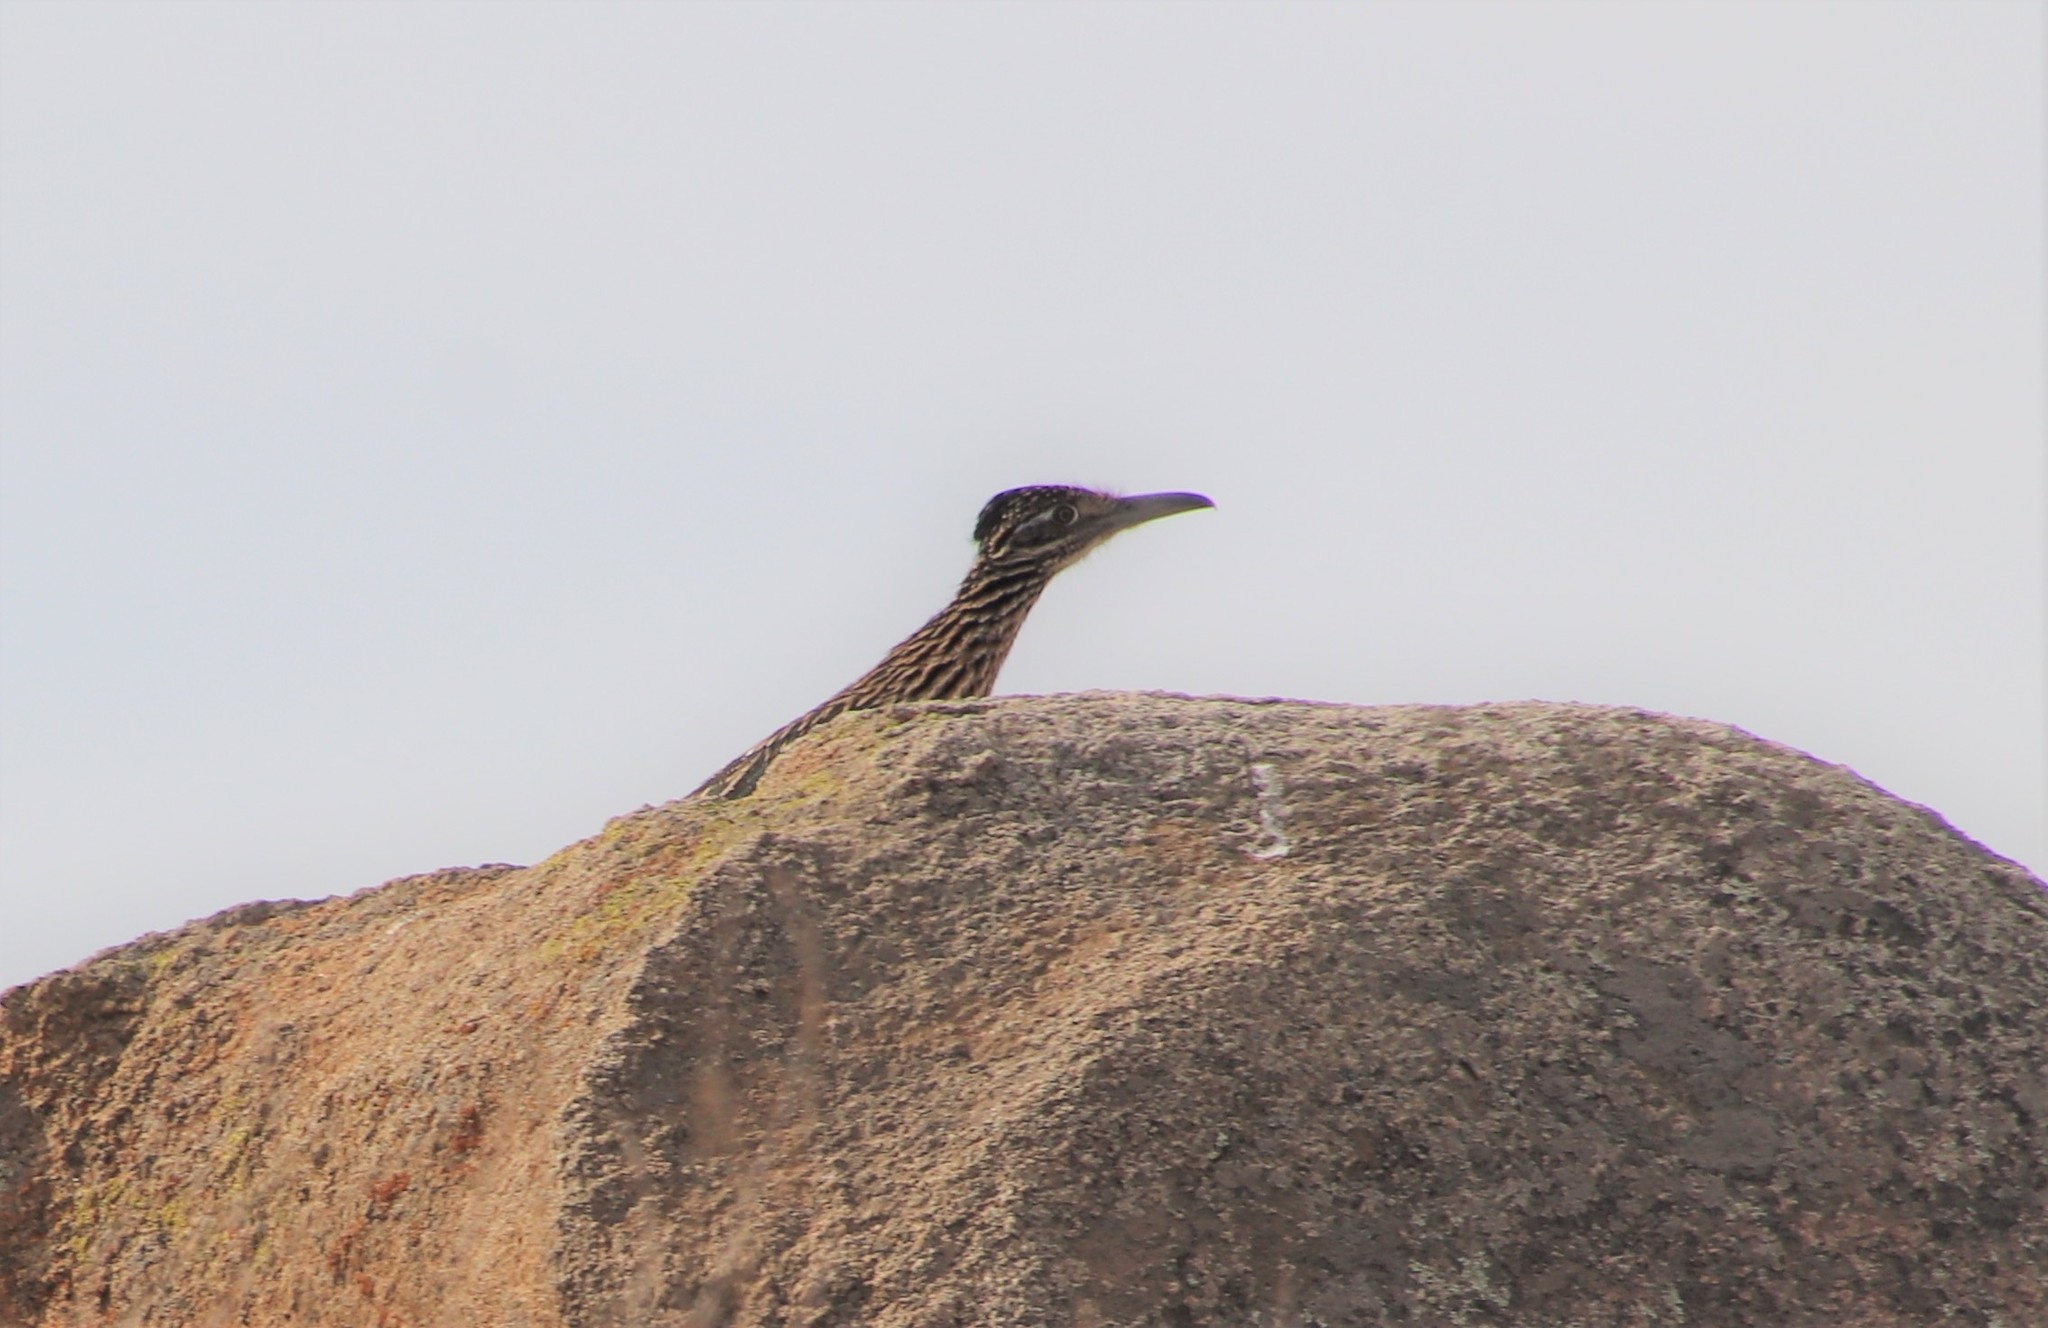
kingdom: Animalia
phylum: Chordata
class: Aves
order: Cuculiformes
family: Cuculidae
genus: Geococcyx
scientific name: Geococcyx californianus
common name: Greater roadrunner
